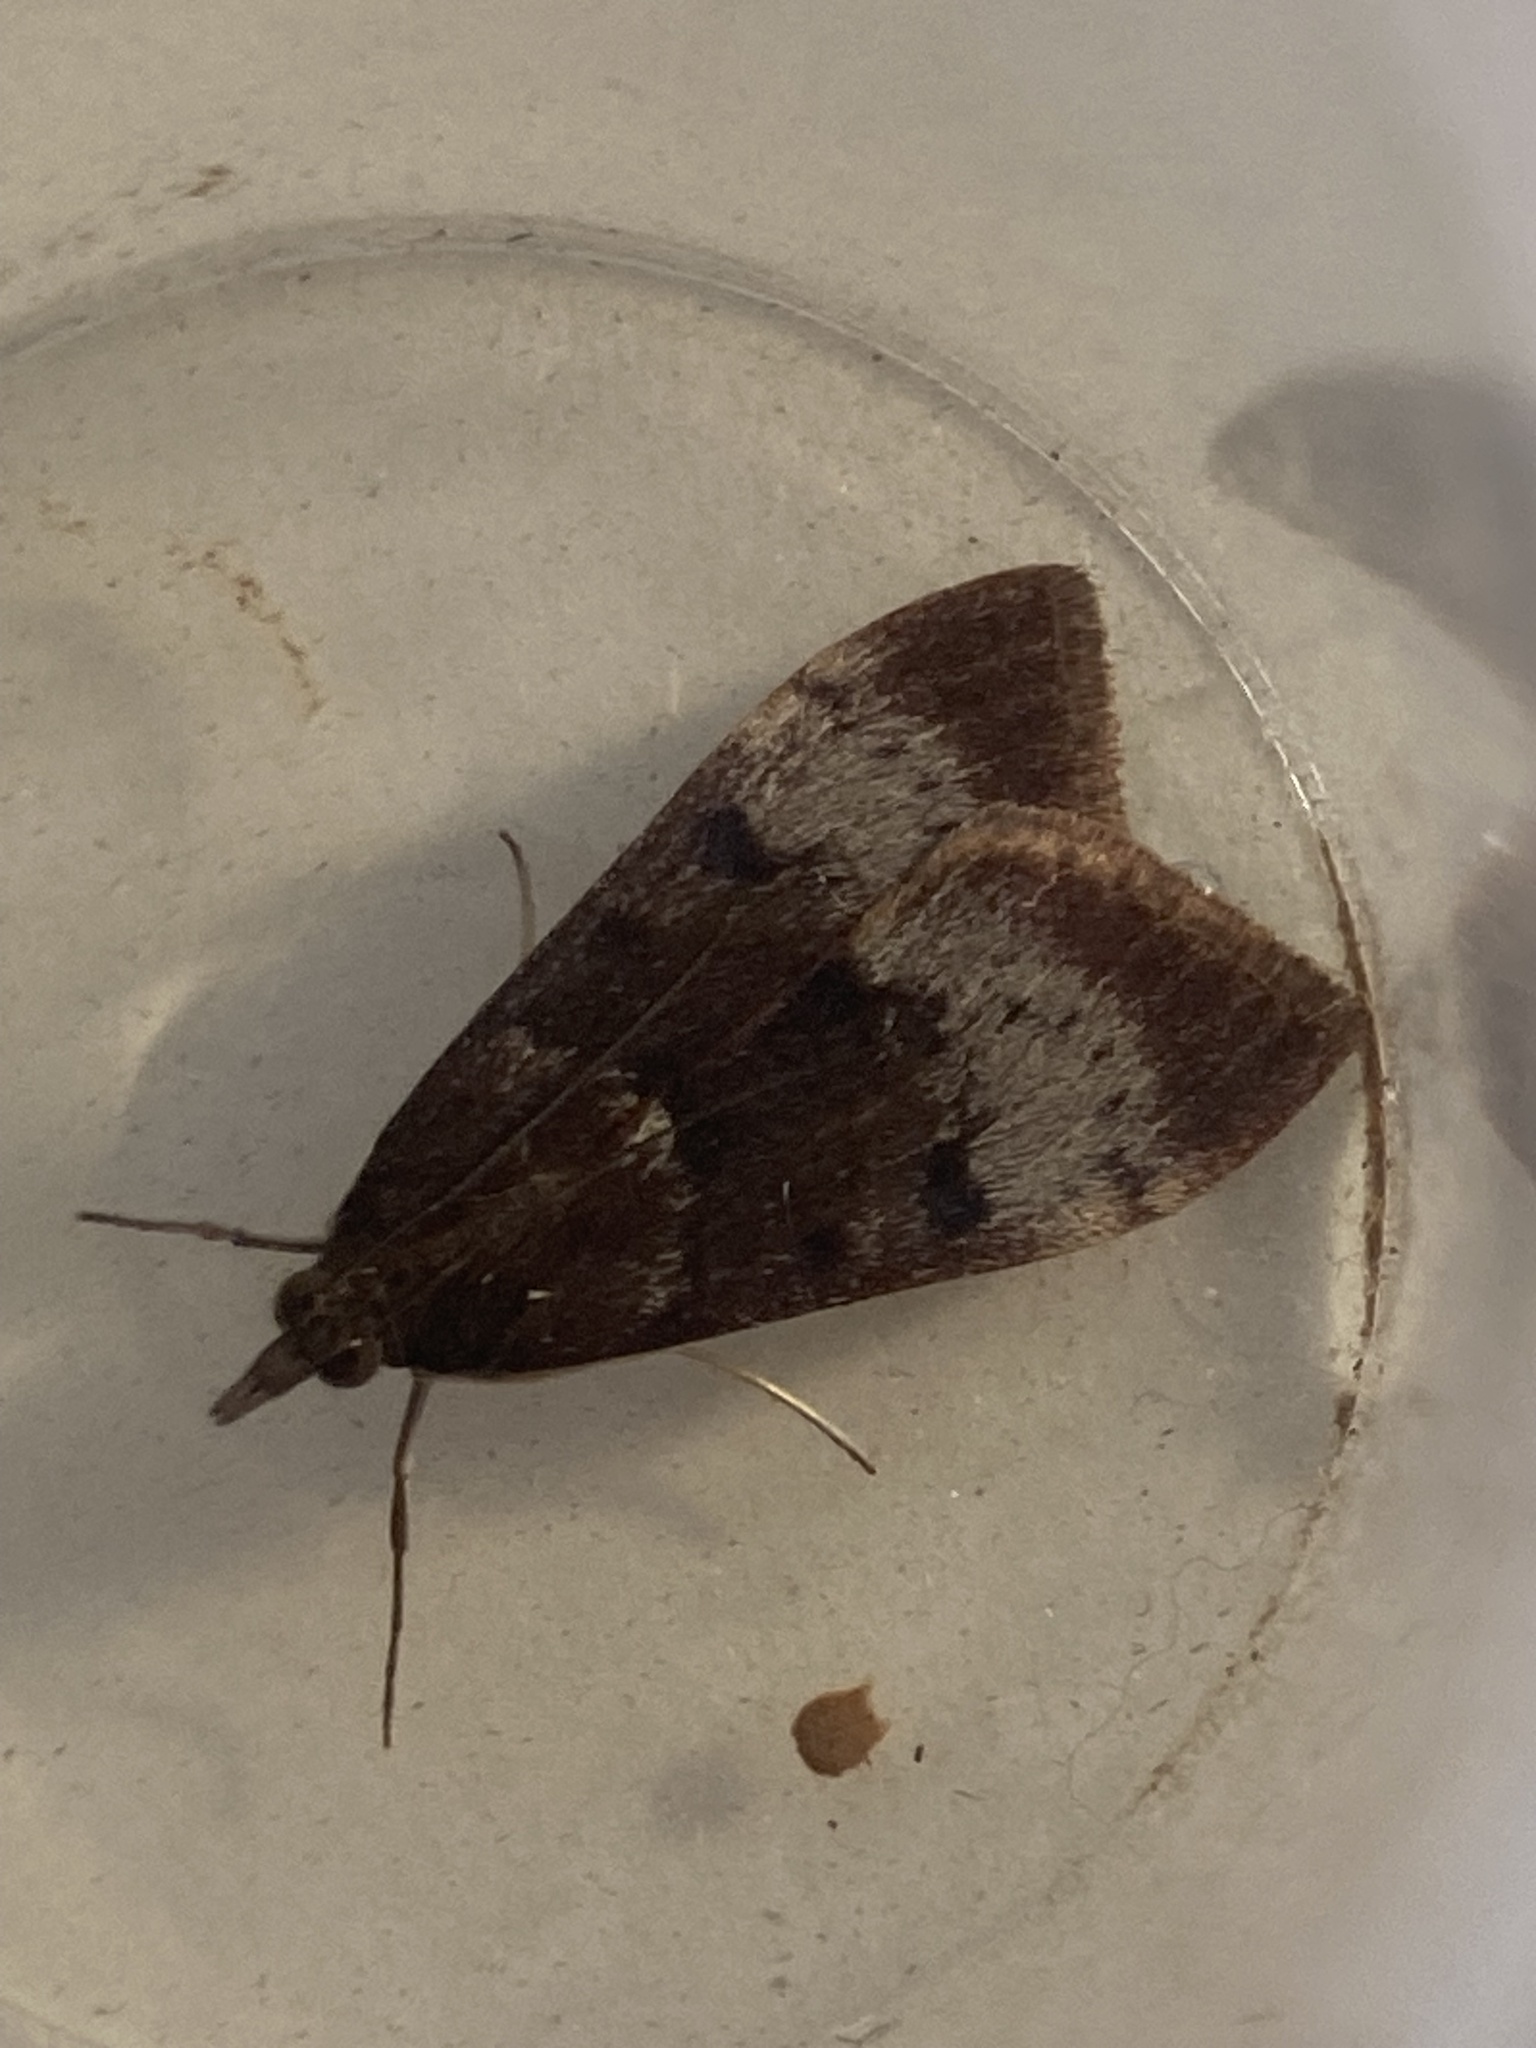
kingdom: Animalia
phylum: Arthropoda
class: Insecta
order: Lepidoptera
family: Crambidae
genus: Uresiphita
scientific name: Uresiphita gilvata
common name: Yellow-underwing pearl
